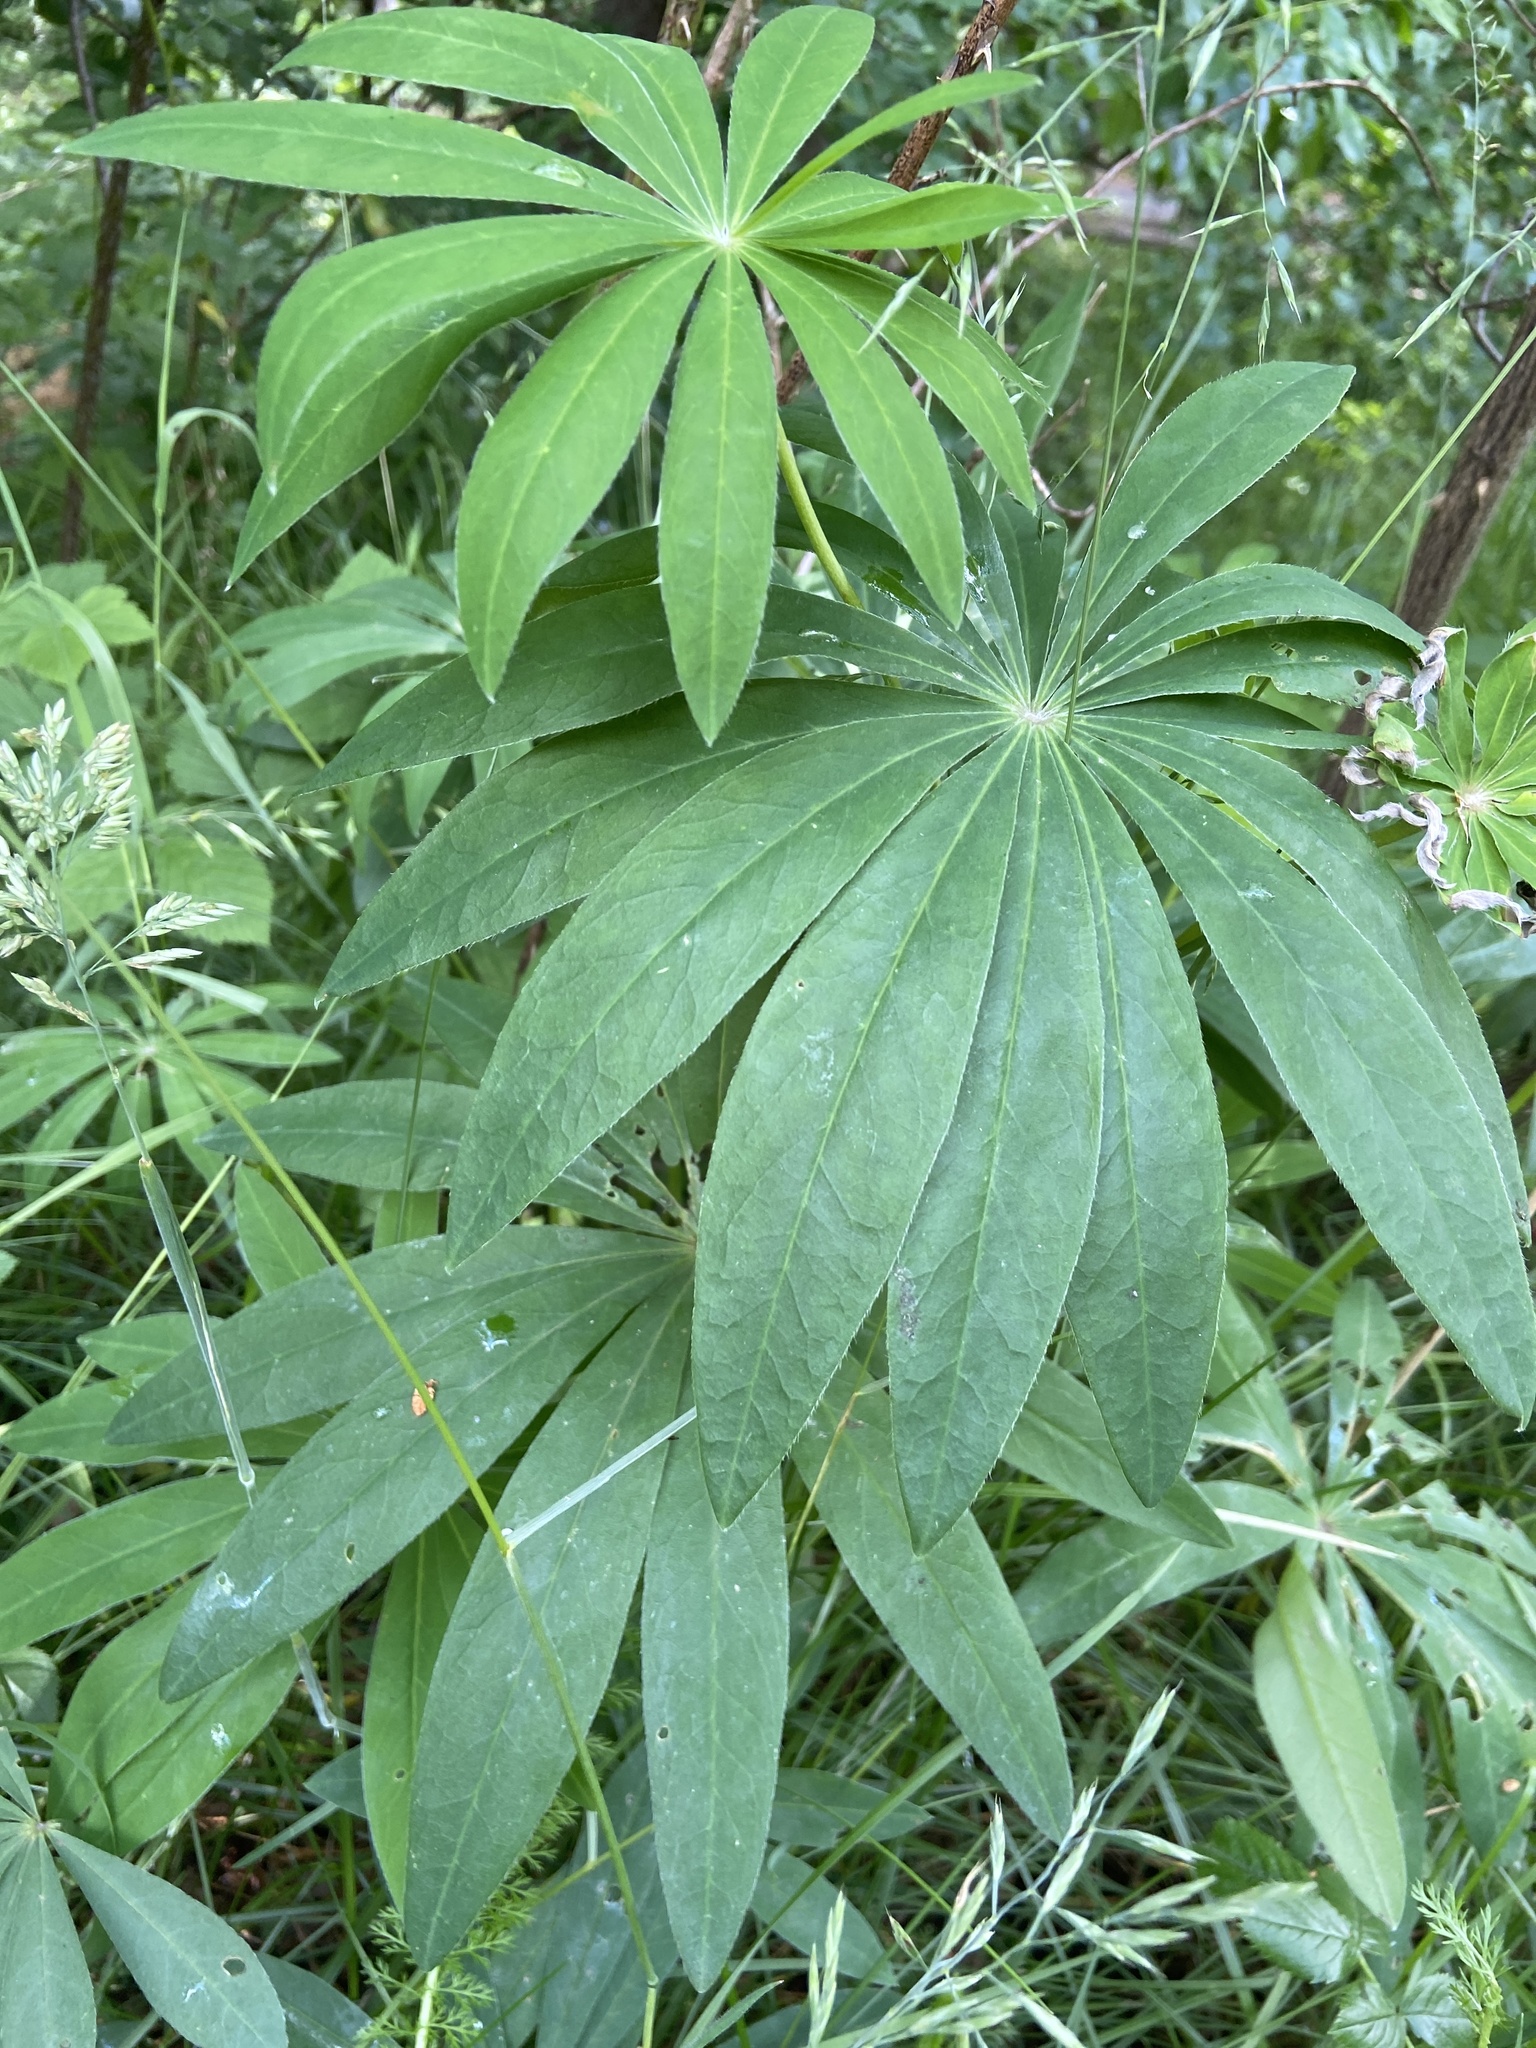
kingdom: Plantae
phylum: Tracheophyta
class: Magnoliopsida
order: Fabales
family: Fabaceae
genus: Lupinus
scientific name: Lupinus polyphyllus
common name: Garden lupin
